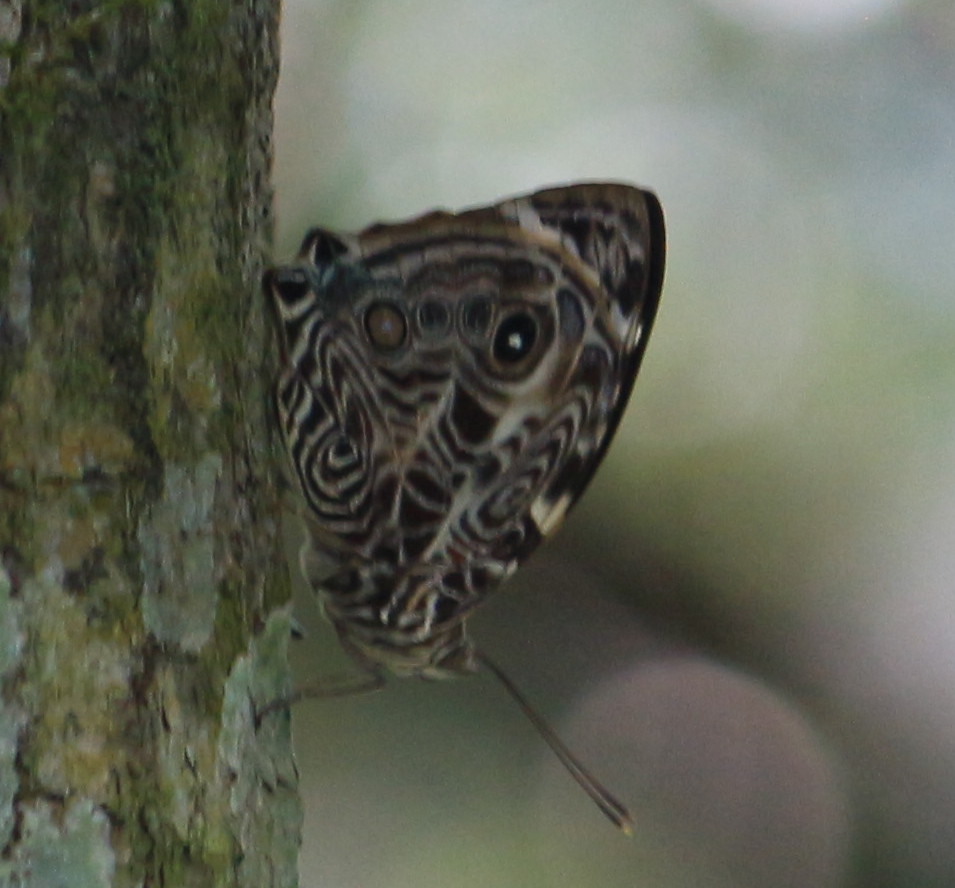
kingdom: Animalia
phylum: Arthropoda
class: Insecta
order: Lepidoptera
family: Nymphalidae
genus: Smyrna
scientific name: Smyrna blomfildia
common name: Blomfild's beauty
